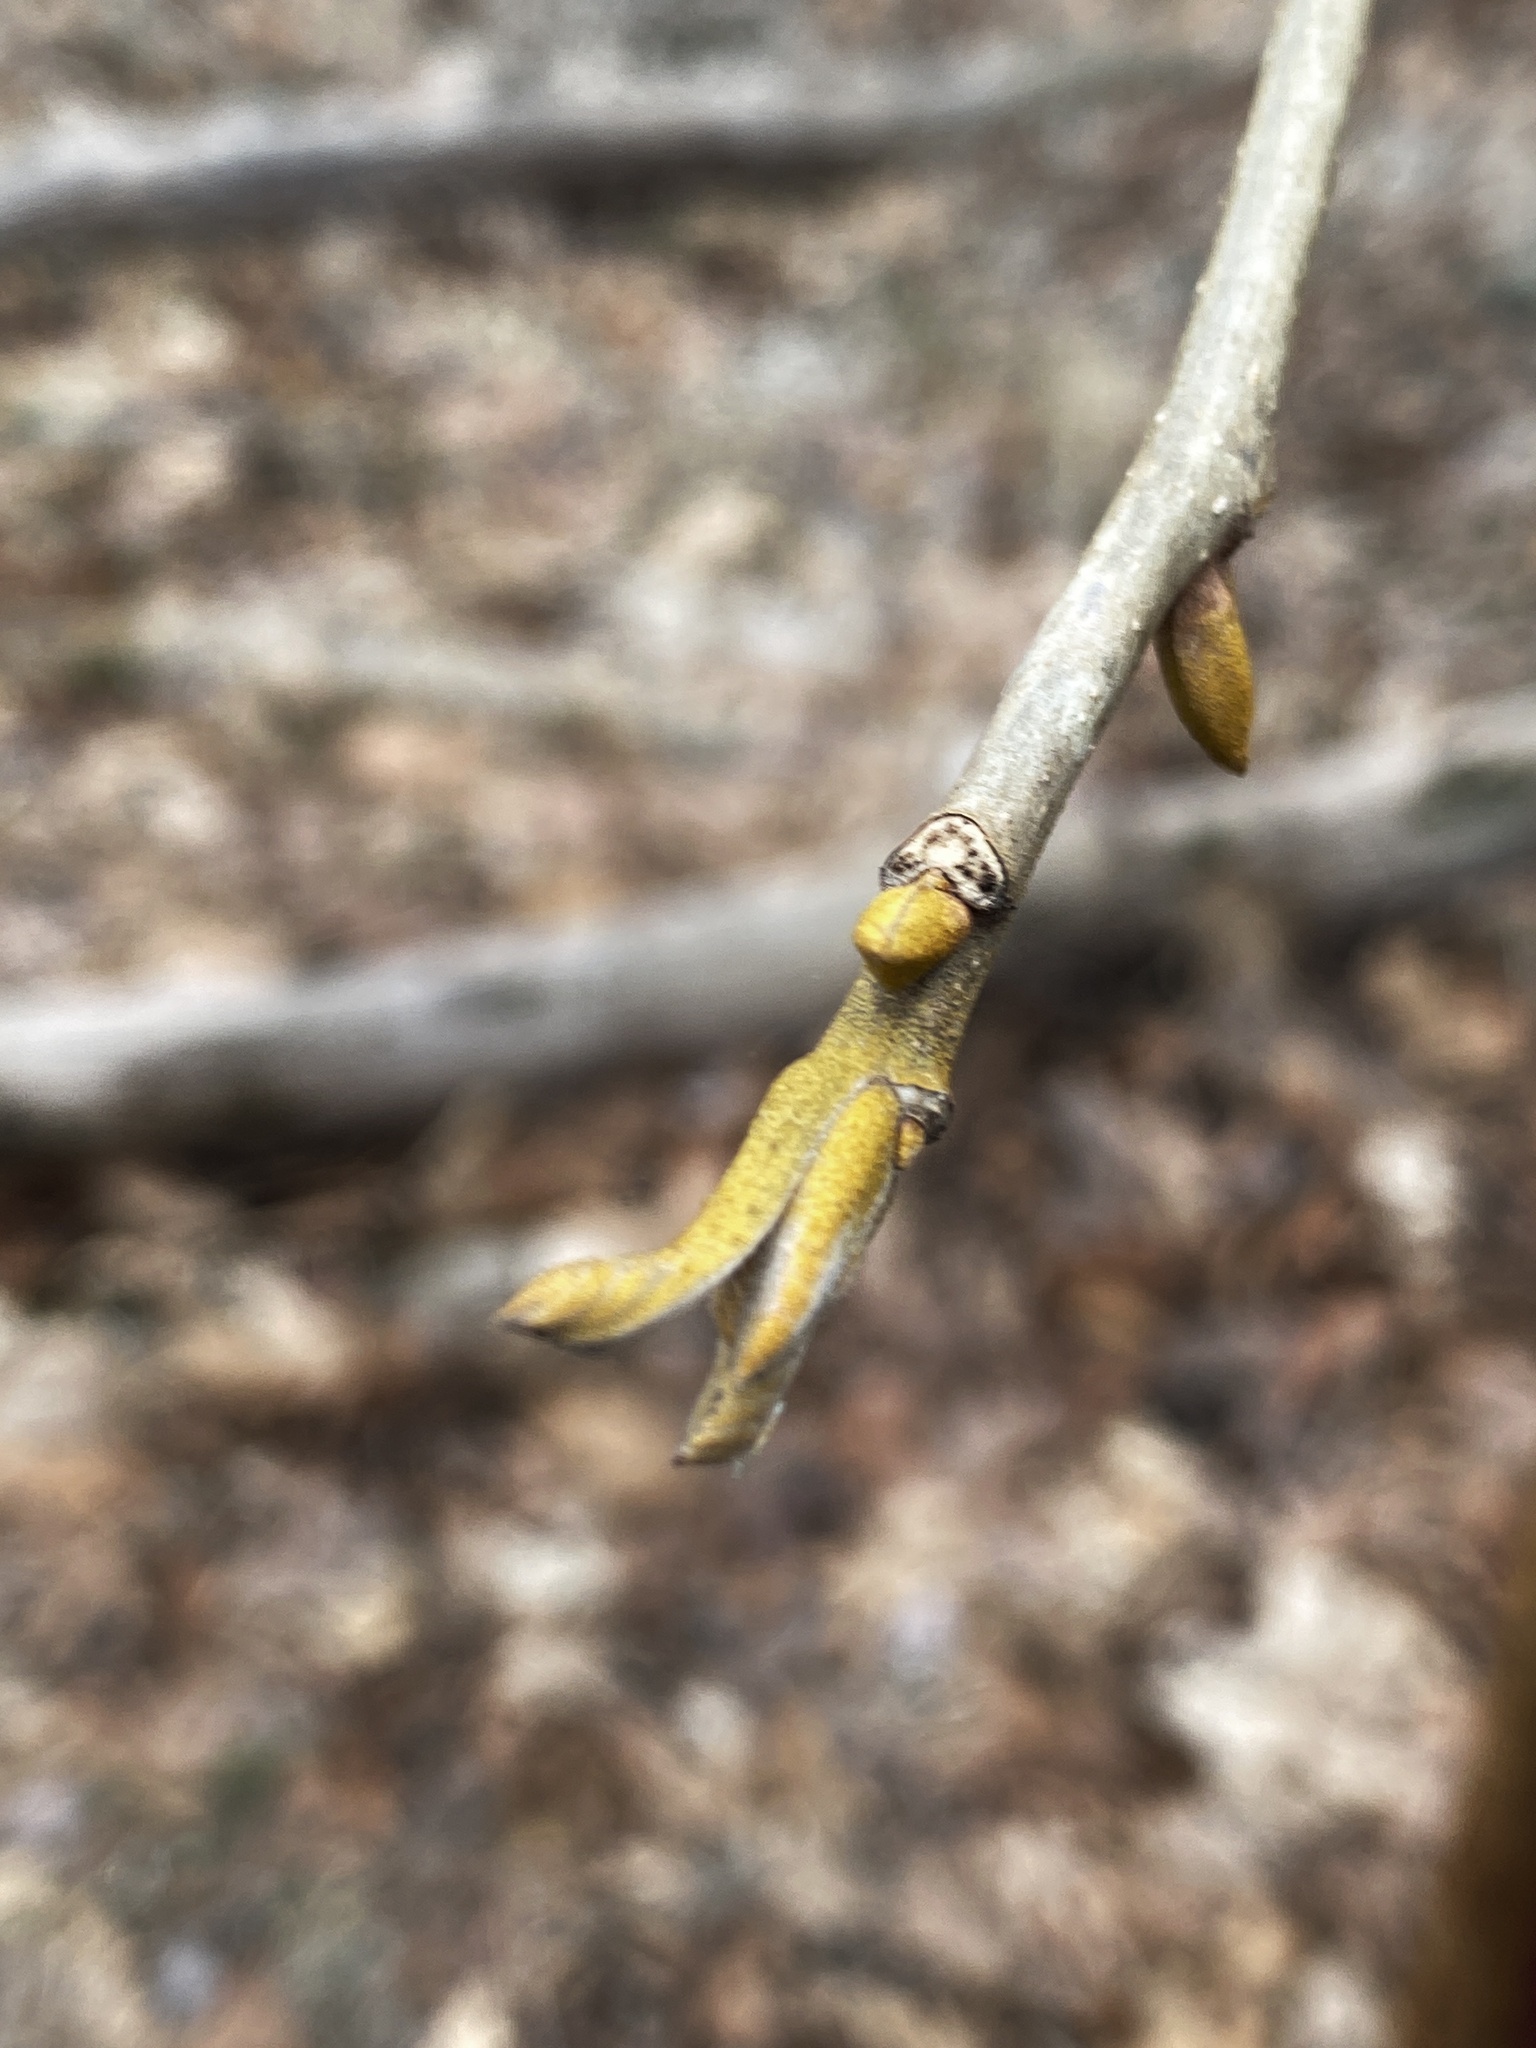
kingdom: Plantae
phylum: Tracheophyta
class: Magnoliopsida
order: Fagales
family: Juglandaceae
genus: Carya
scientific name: Carya cordiformis
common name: Bitternut hickory
